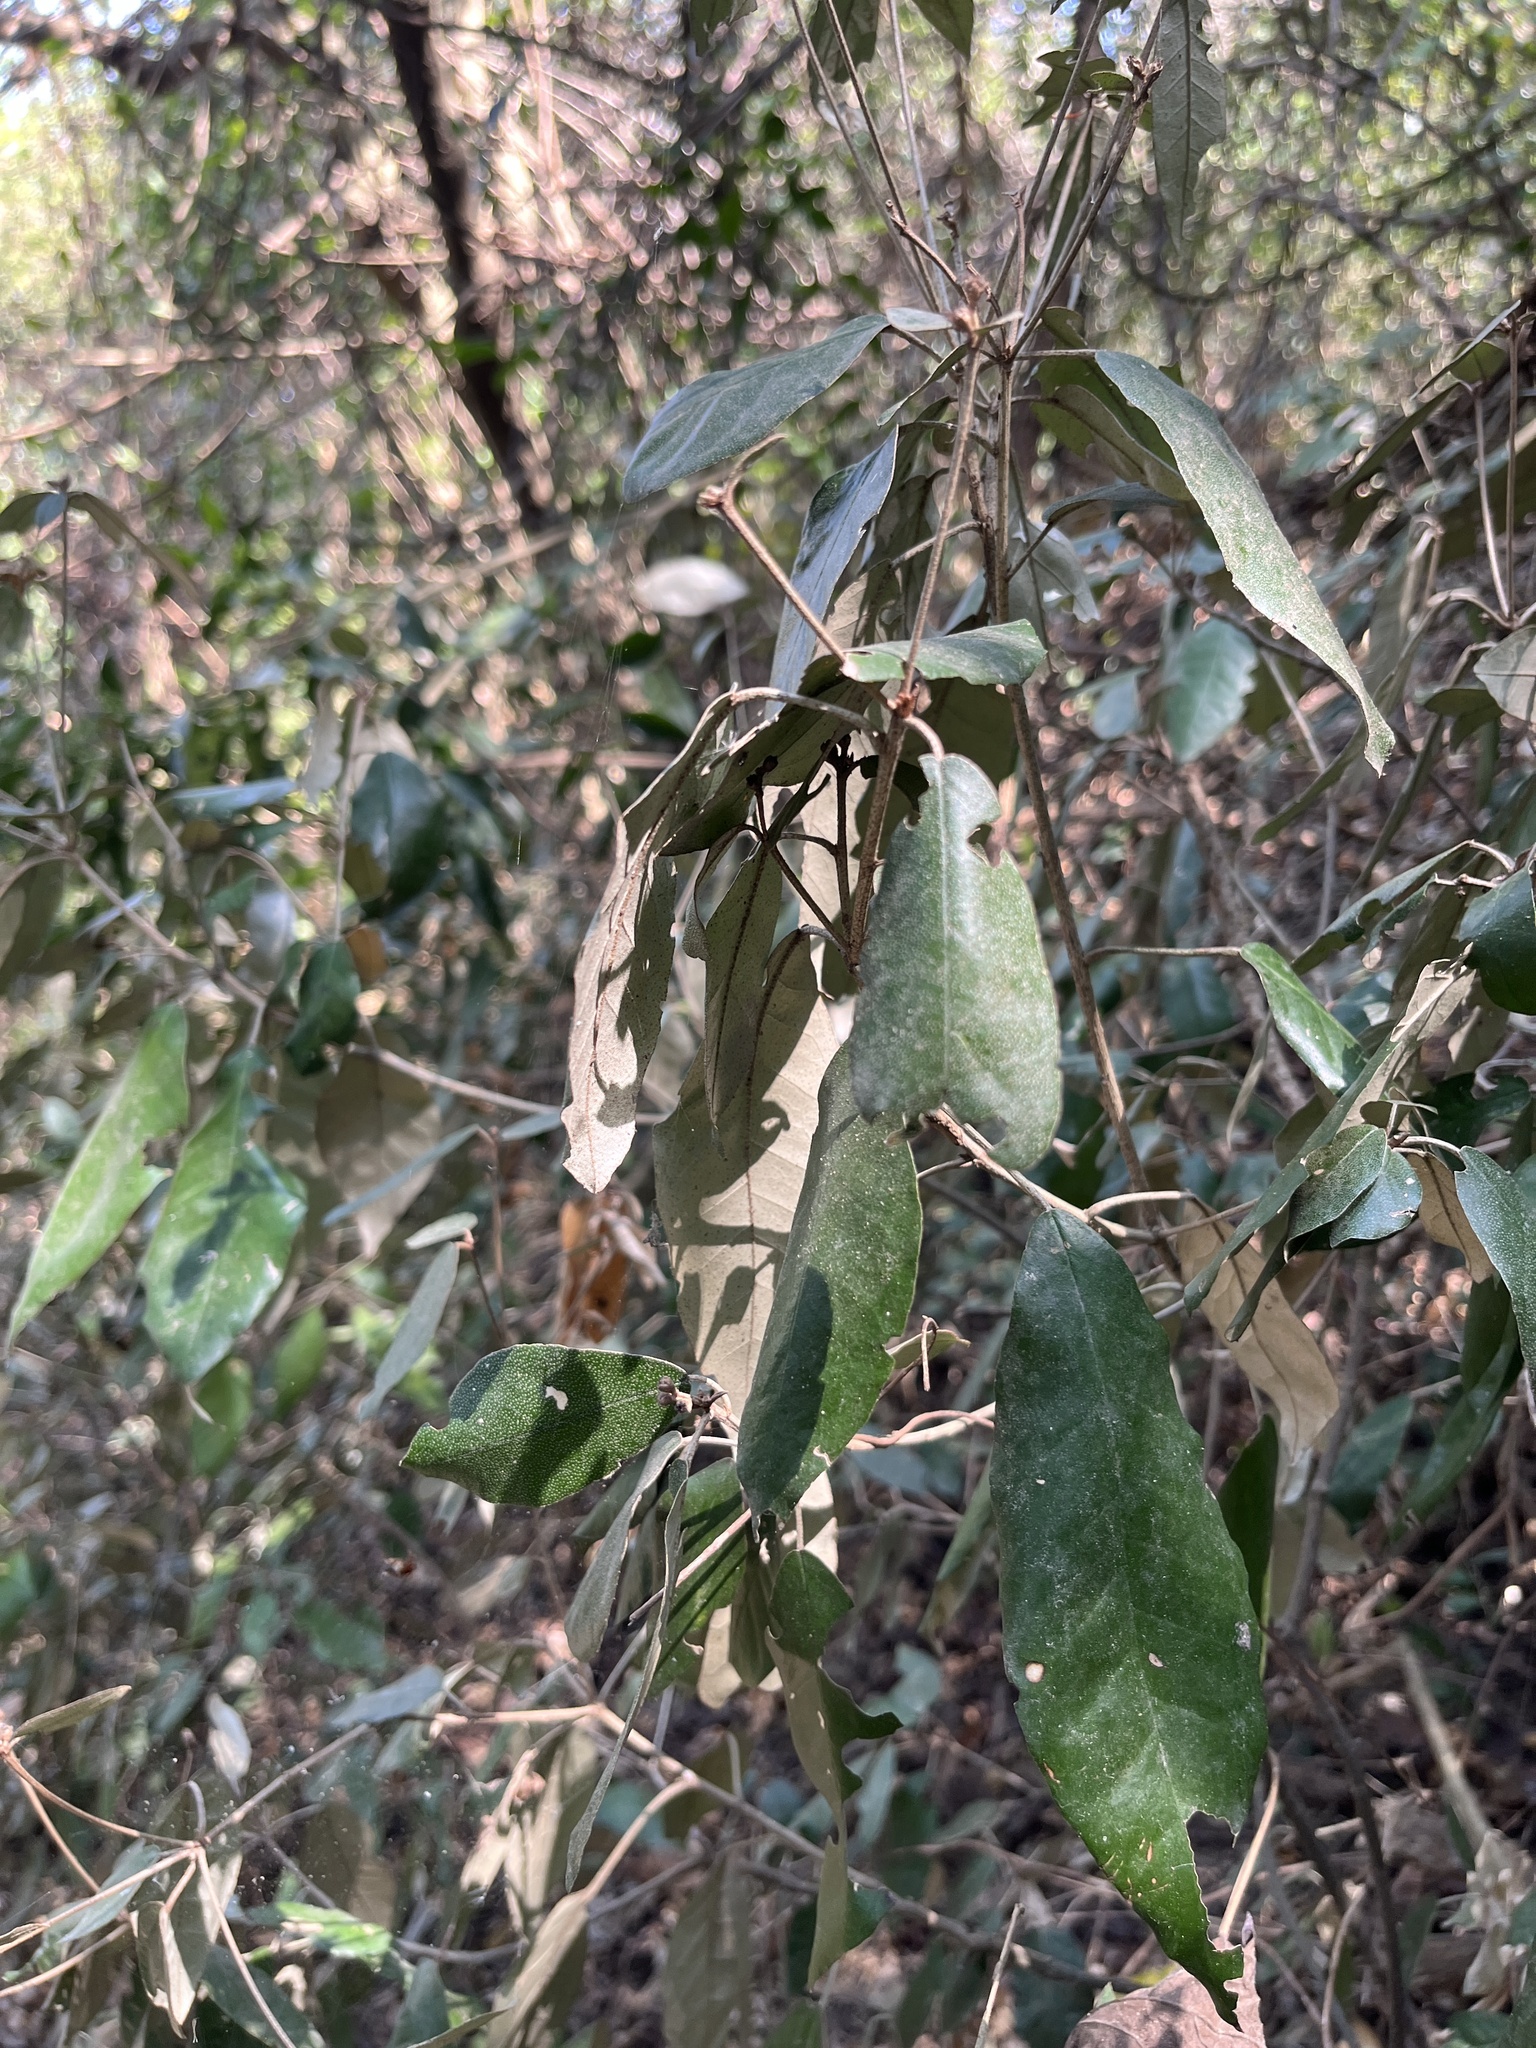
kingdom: Plantae
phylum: Tracheophyta
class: Magnoliopsida
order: Malpighiales
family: Euphorbiaceae
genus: Mallotus
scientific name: Mallotus philippensis
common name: Kamala tree
